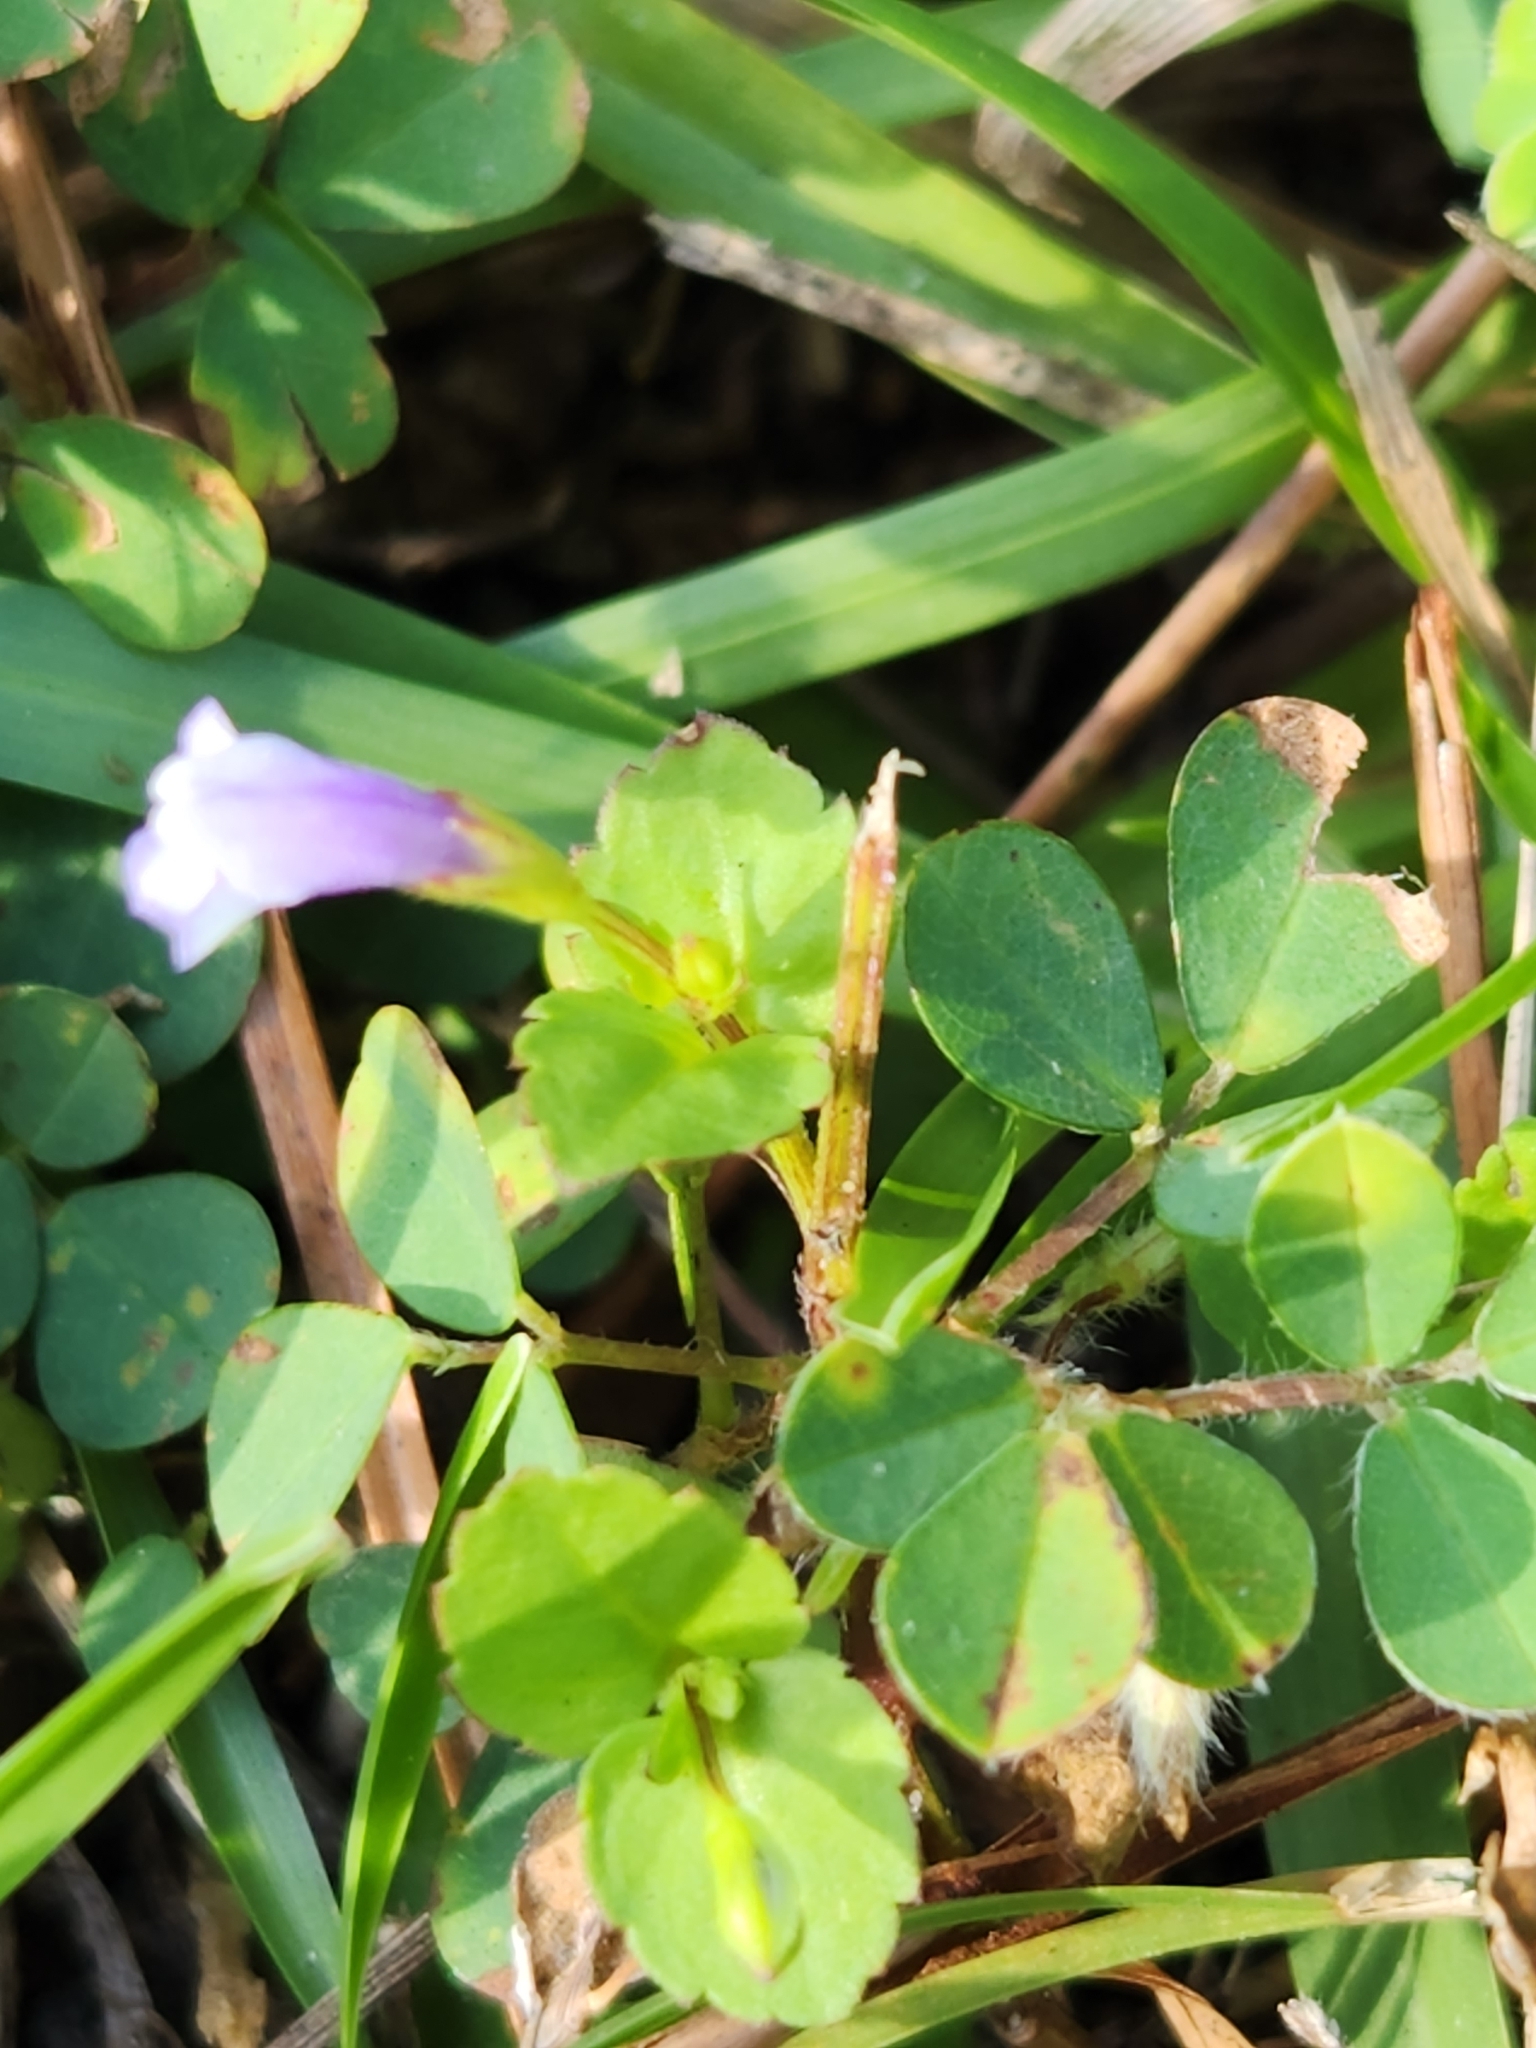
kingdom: Plantae
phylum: Tracheophyta
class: Magnoliopsida
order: Lamiales
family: Linderniaceae
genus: Torenia
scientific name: Torenia crustacea
